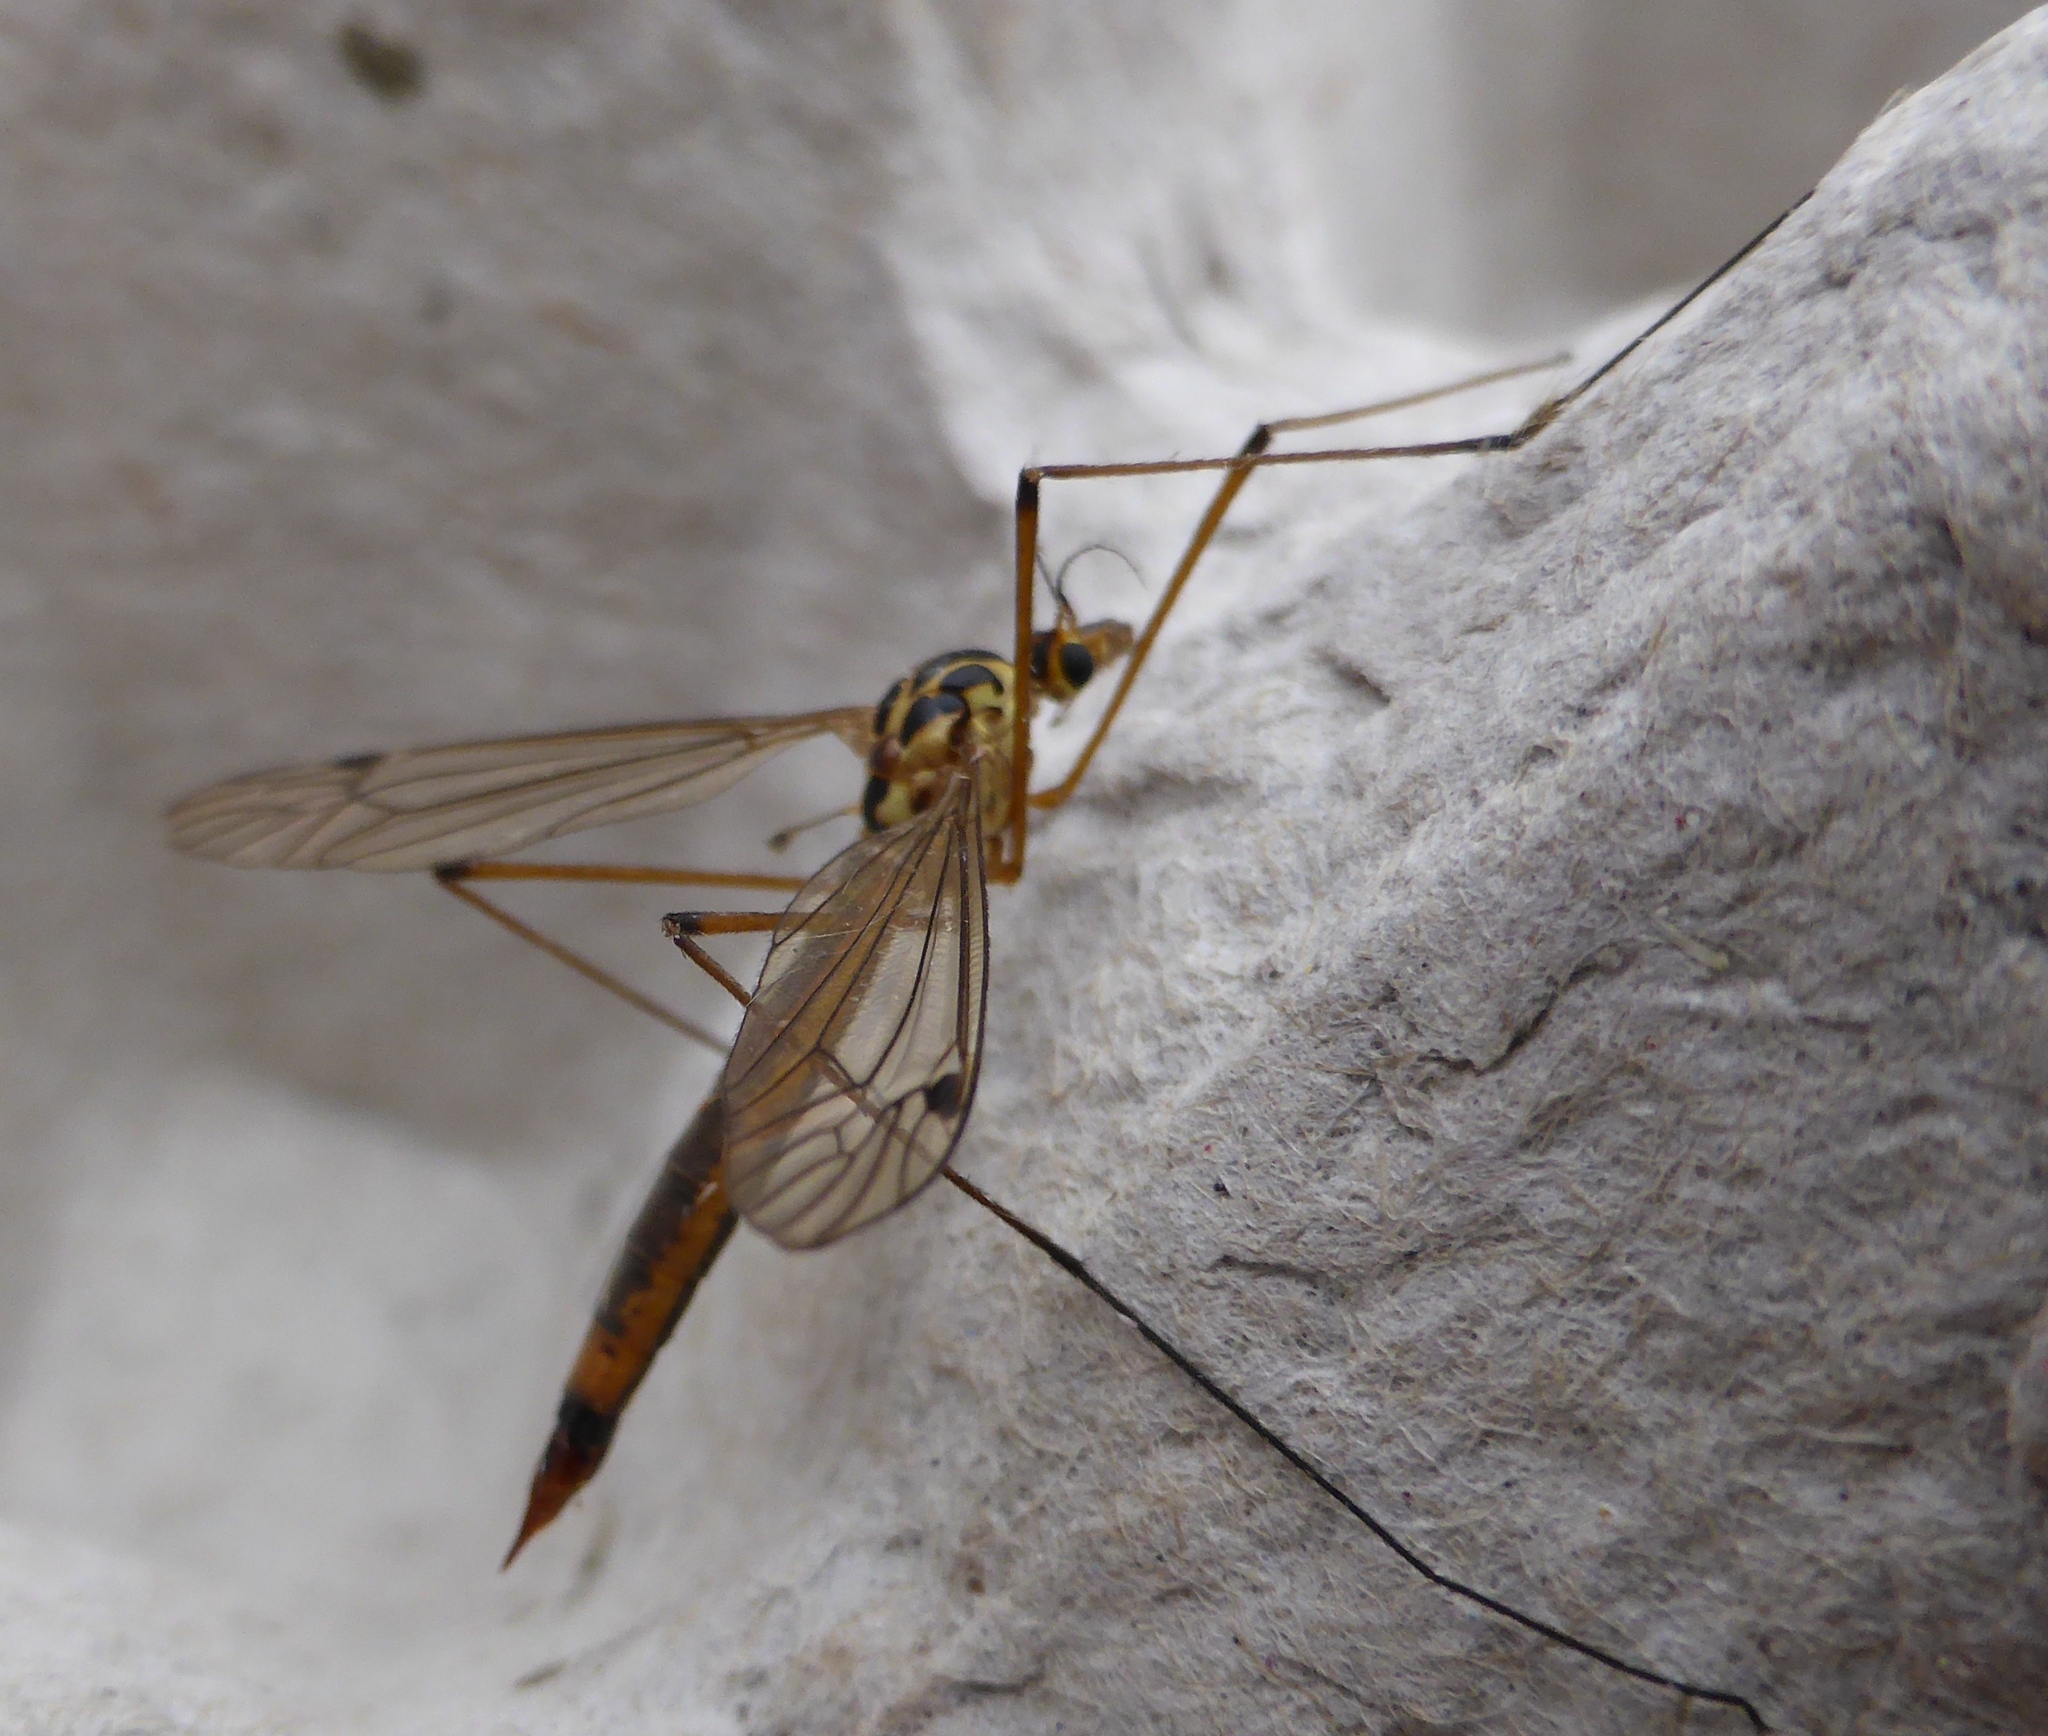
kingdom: Animalia
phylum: Arthropoda
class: Insecta
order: Diptera
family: Tipulidae
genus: Nephrotoma
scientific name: Nephrotoma cornicina
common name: Cranefly
